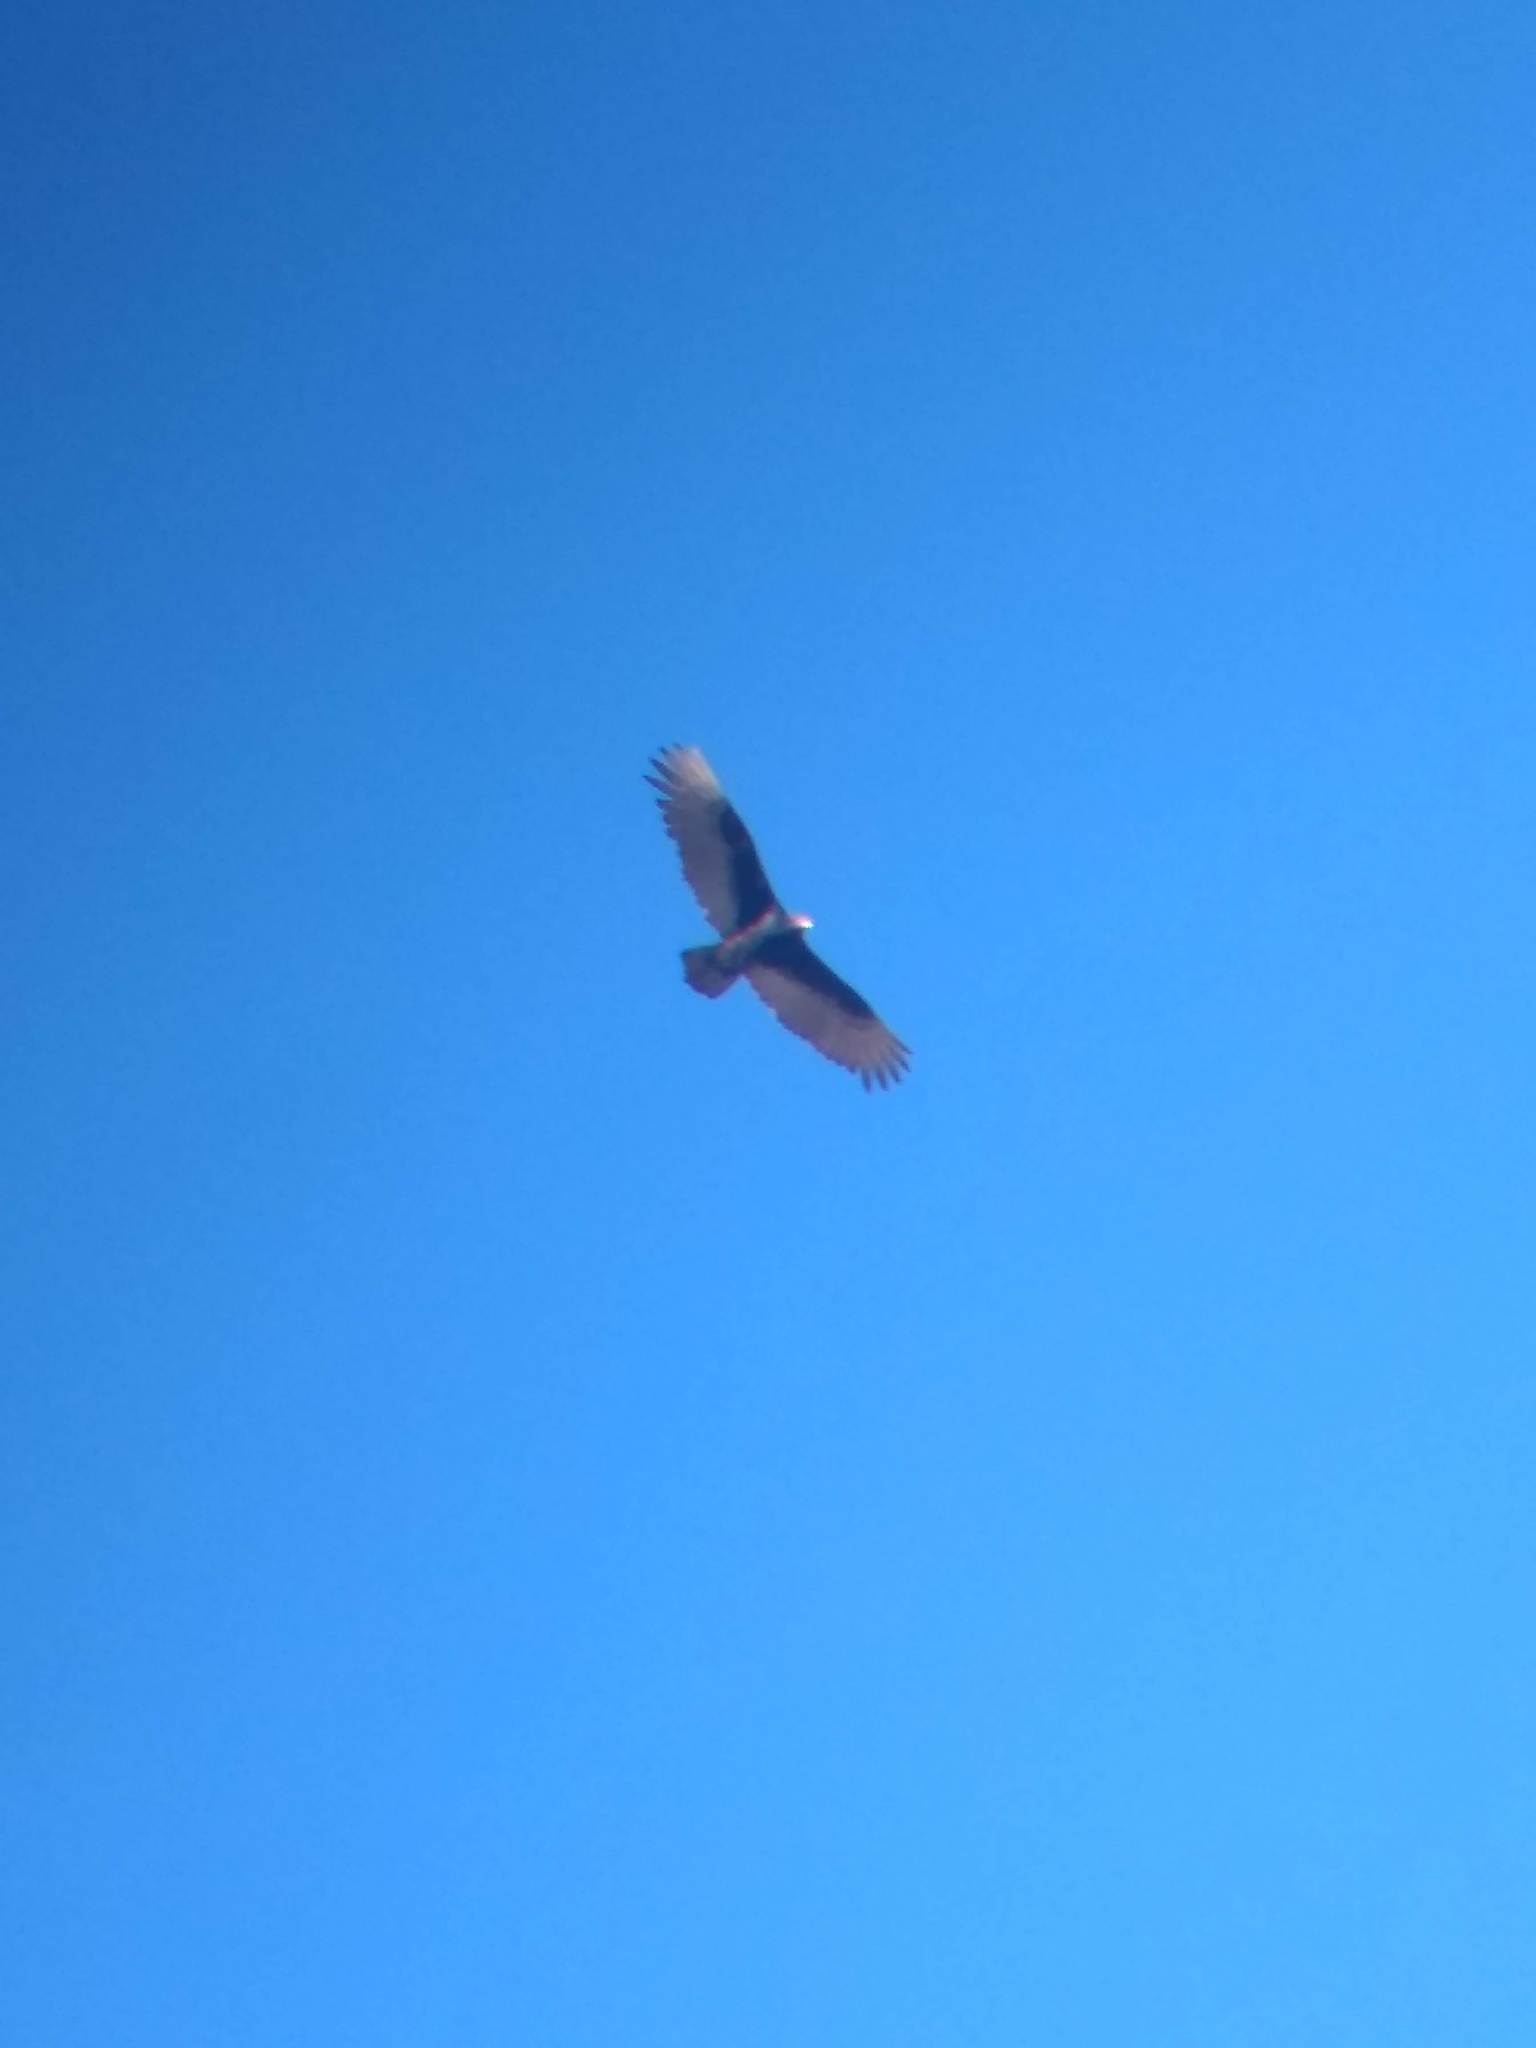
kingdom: Animalia
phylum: Chordata
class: Aves
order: Accipitriformes
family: Cathartidae
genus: Cathartes
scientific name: Cathartes aura
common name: Turkey vulture
